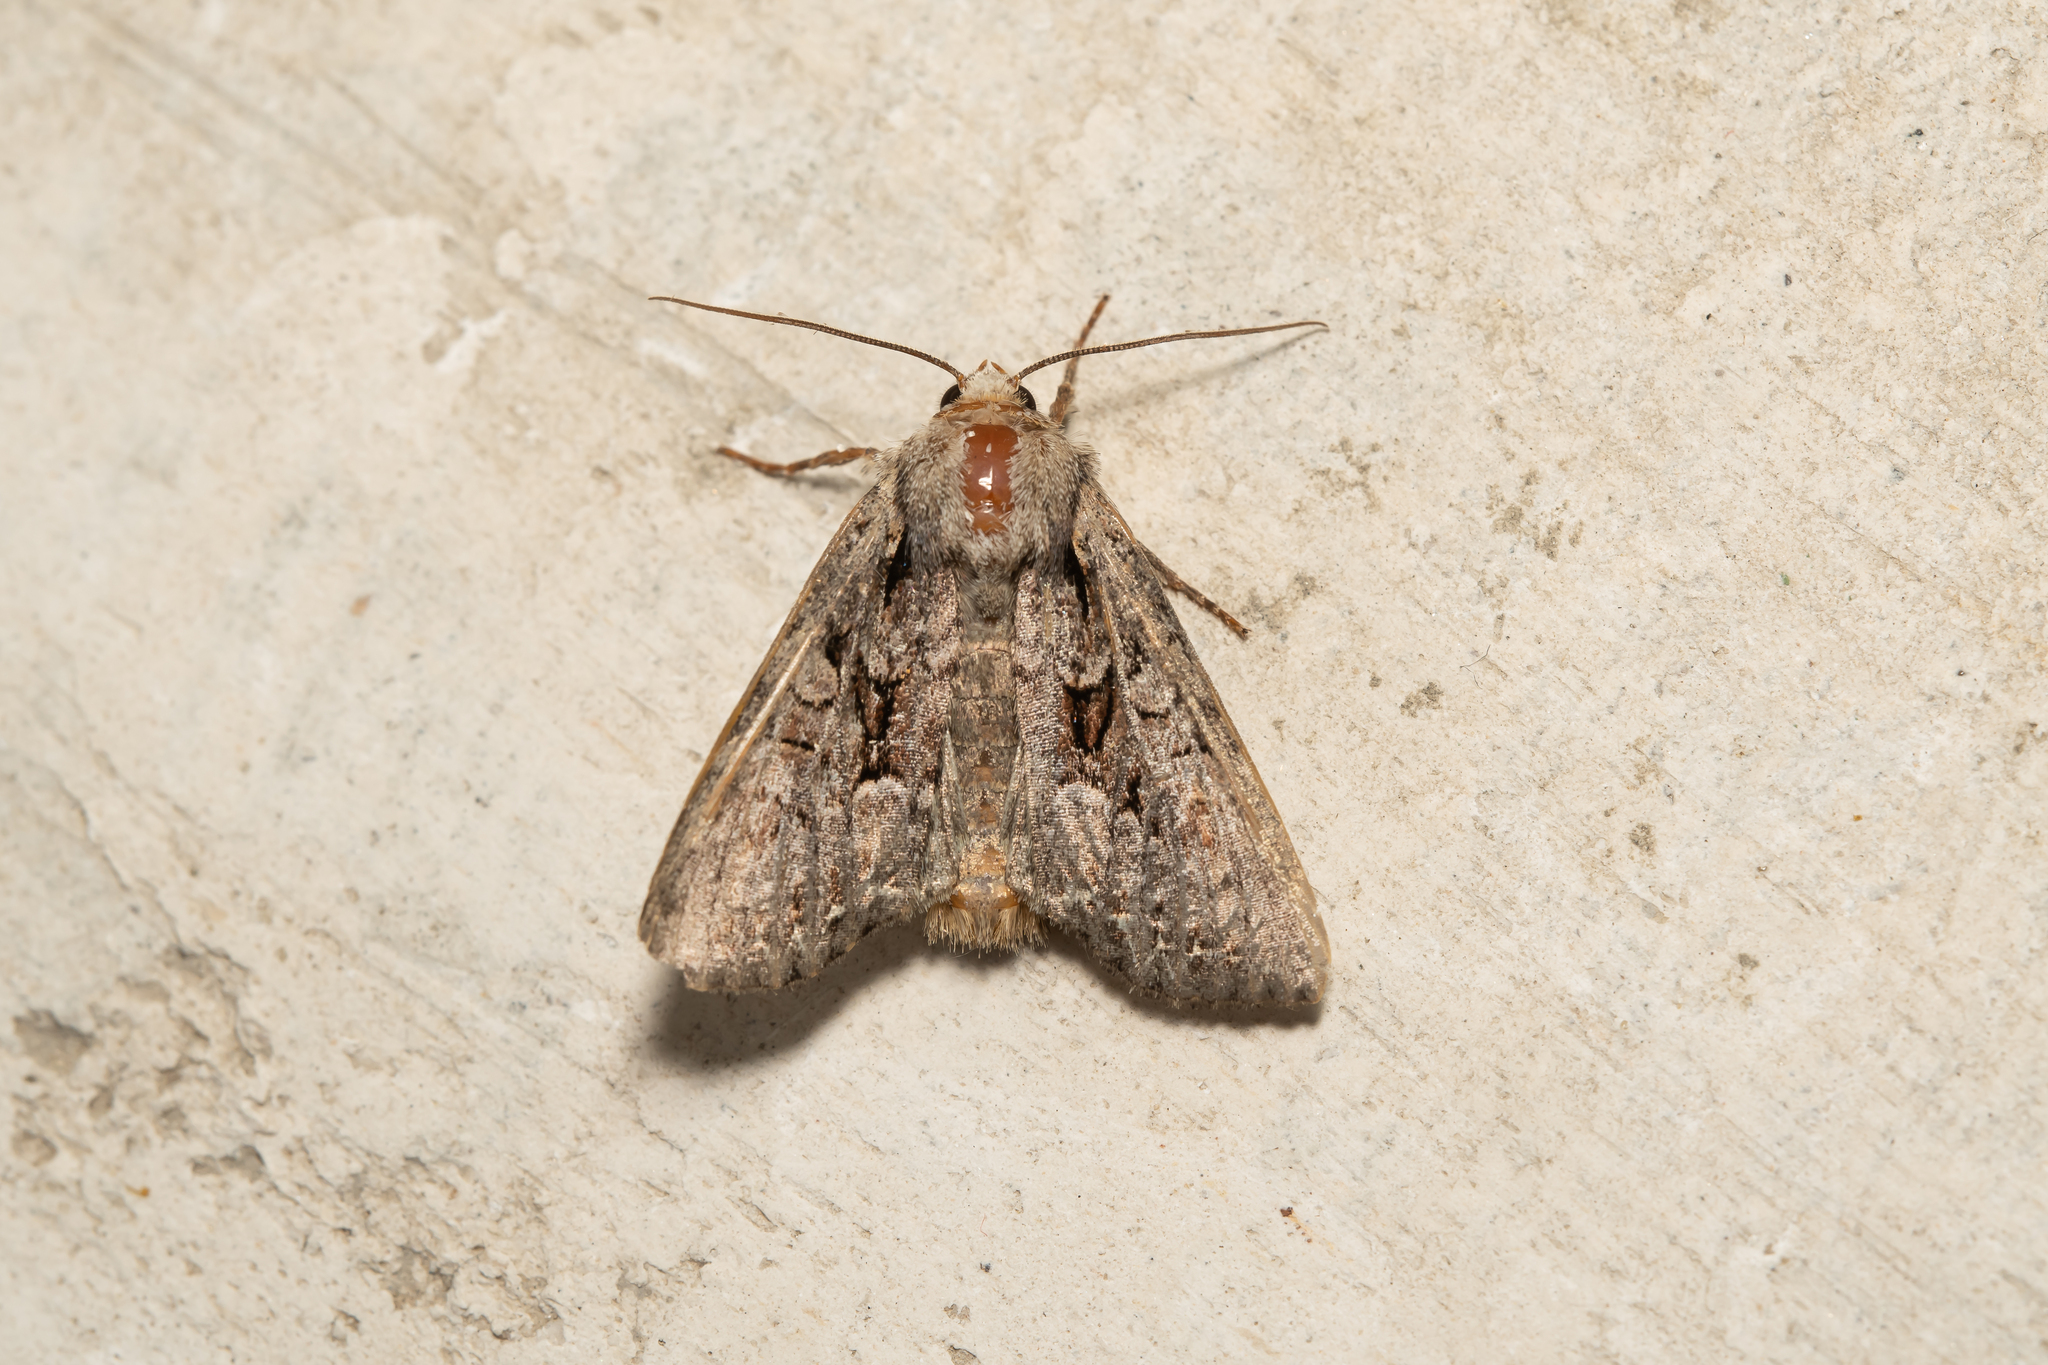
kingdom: Animalia
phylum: Arthropoda
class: Insecta
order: Lepidoptera
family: Noctuidae
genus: Lacanobia
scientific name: Lacanobia thalassina
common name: Pale-shouldered brocade
